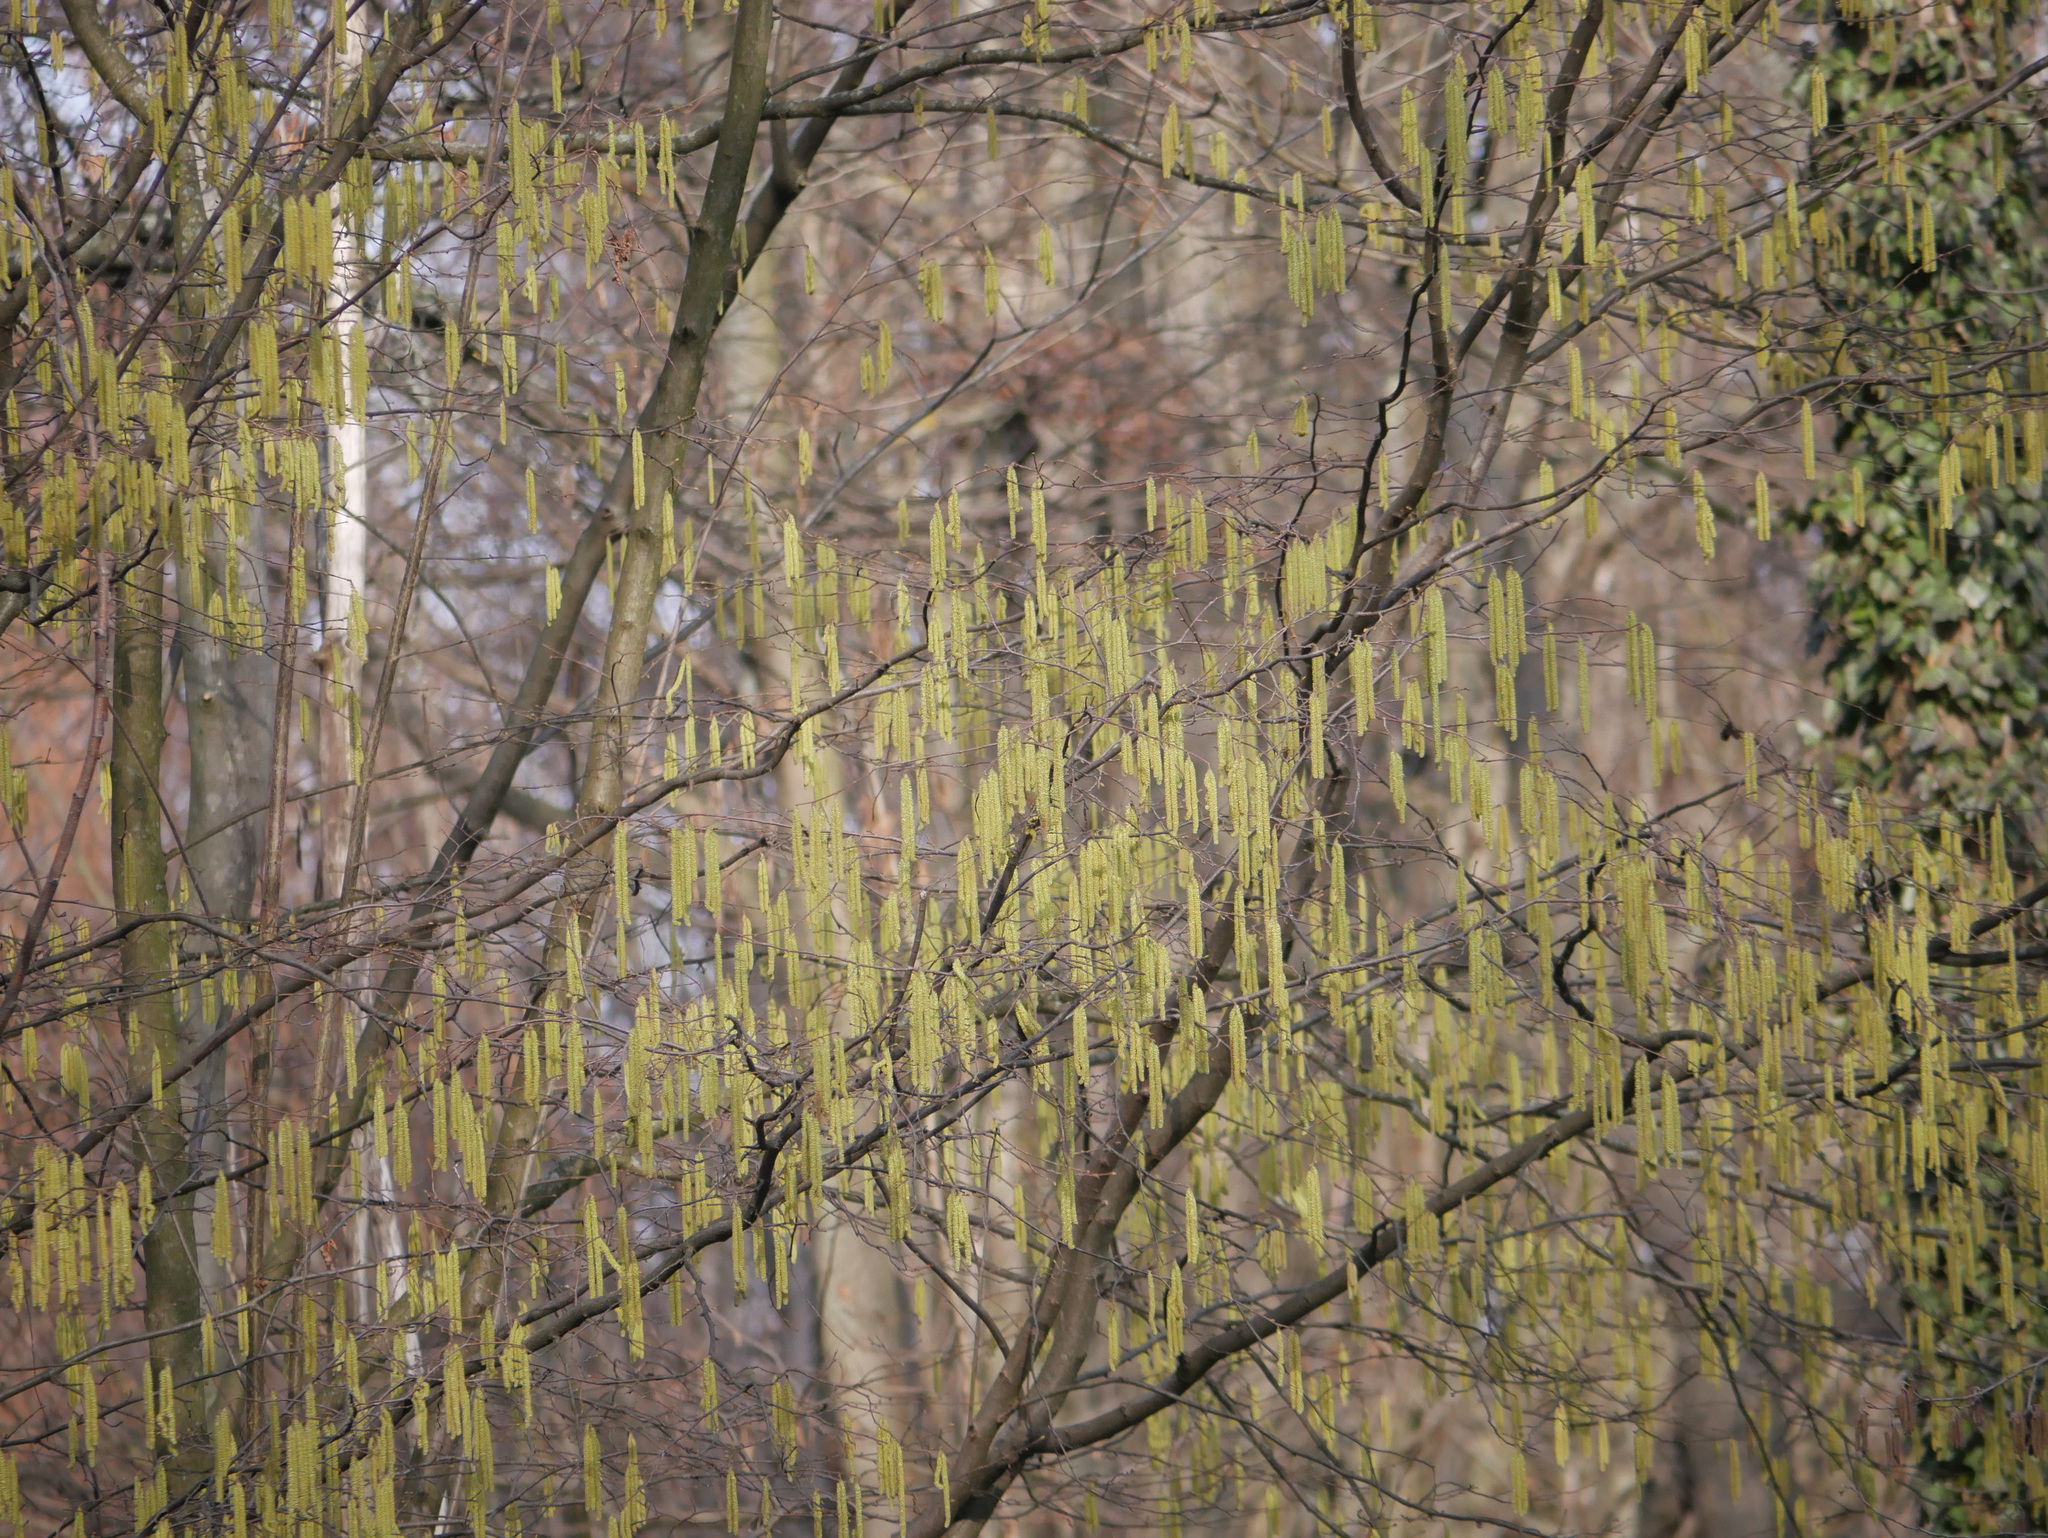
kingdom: Plantae
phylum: Tracheophyta
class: Magnoliopsida
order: Fagales
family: Betulaceae
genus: Corylus
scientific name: Corylus avellana
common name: European hazel
